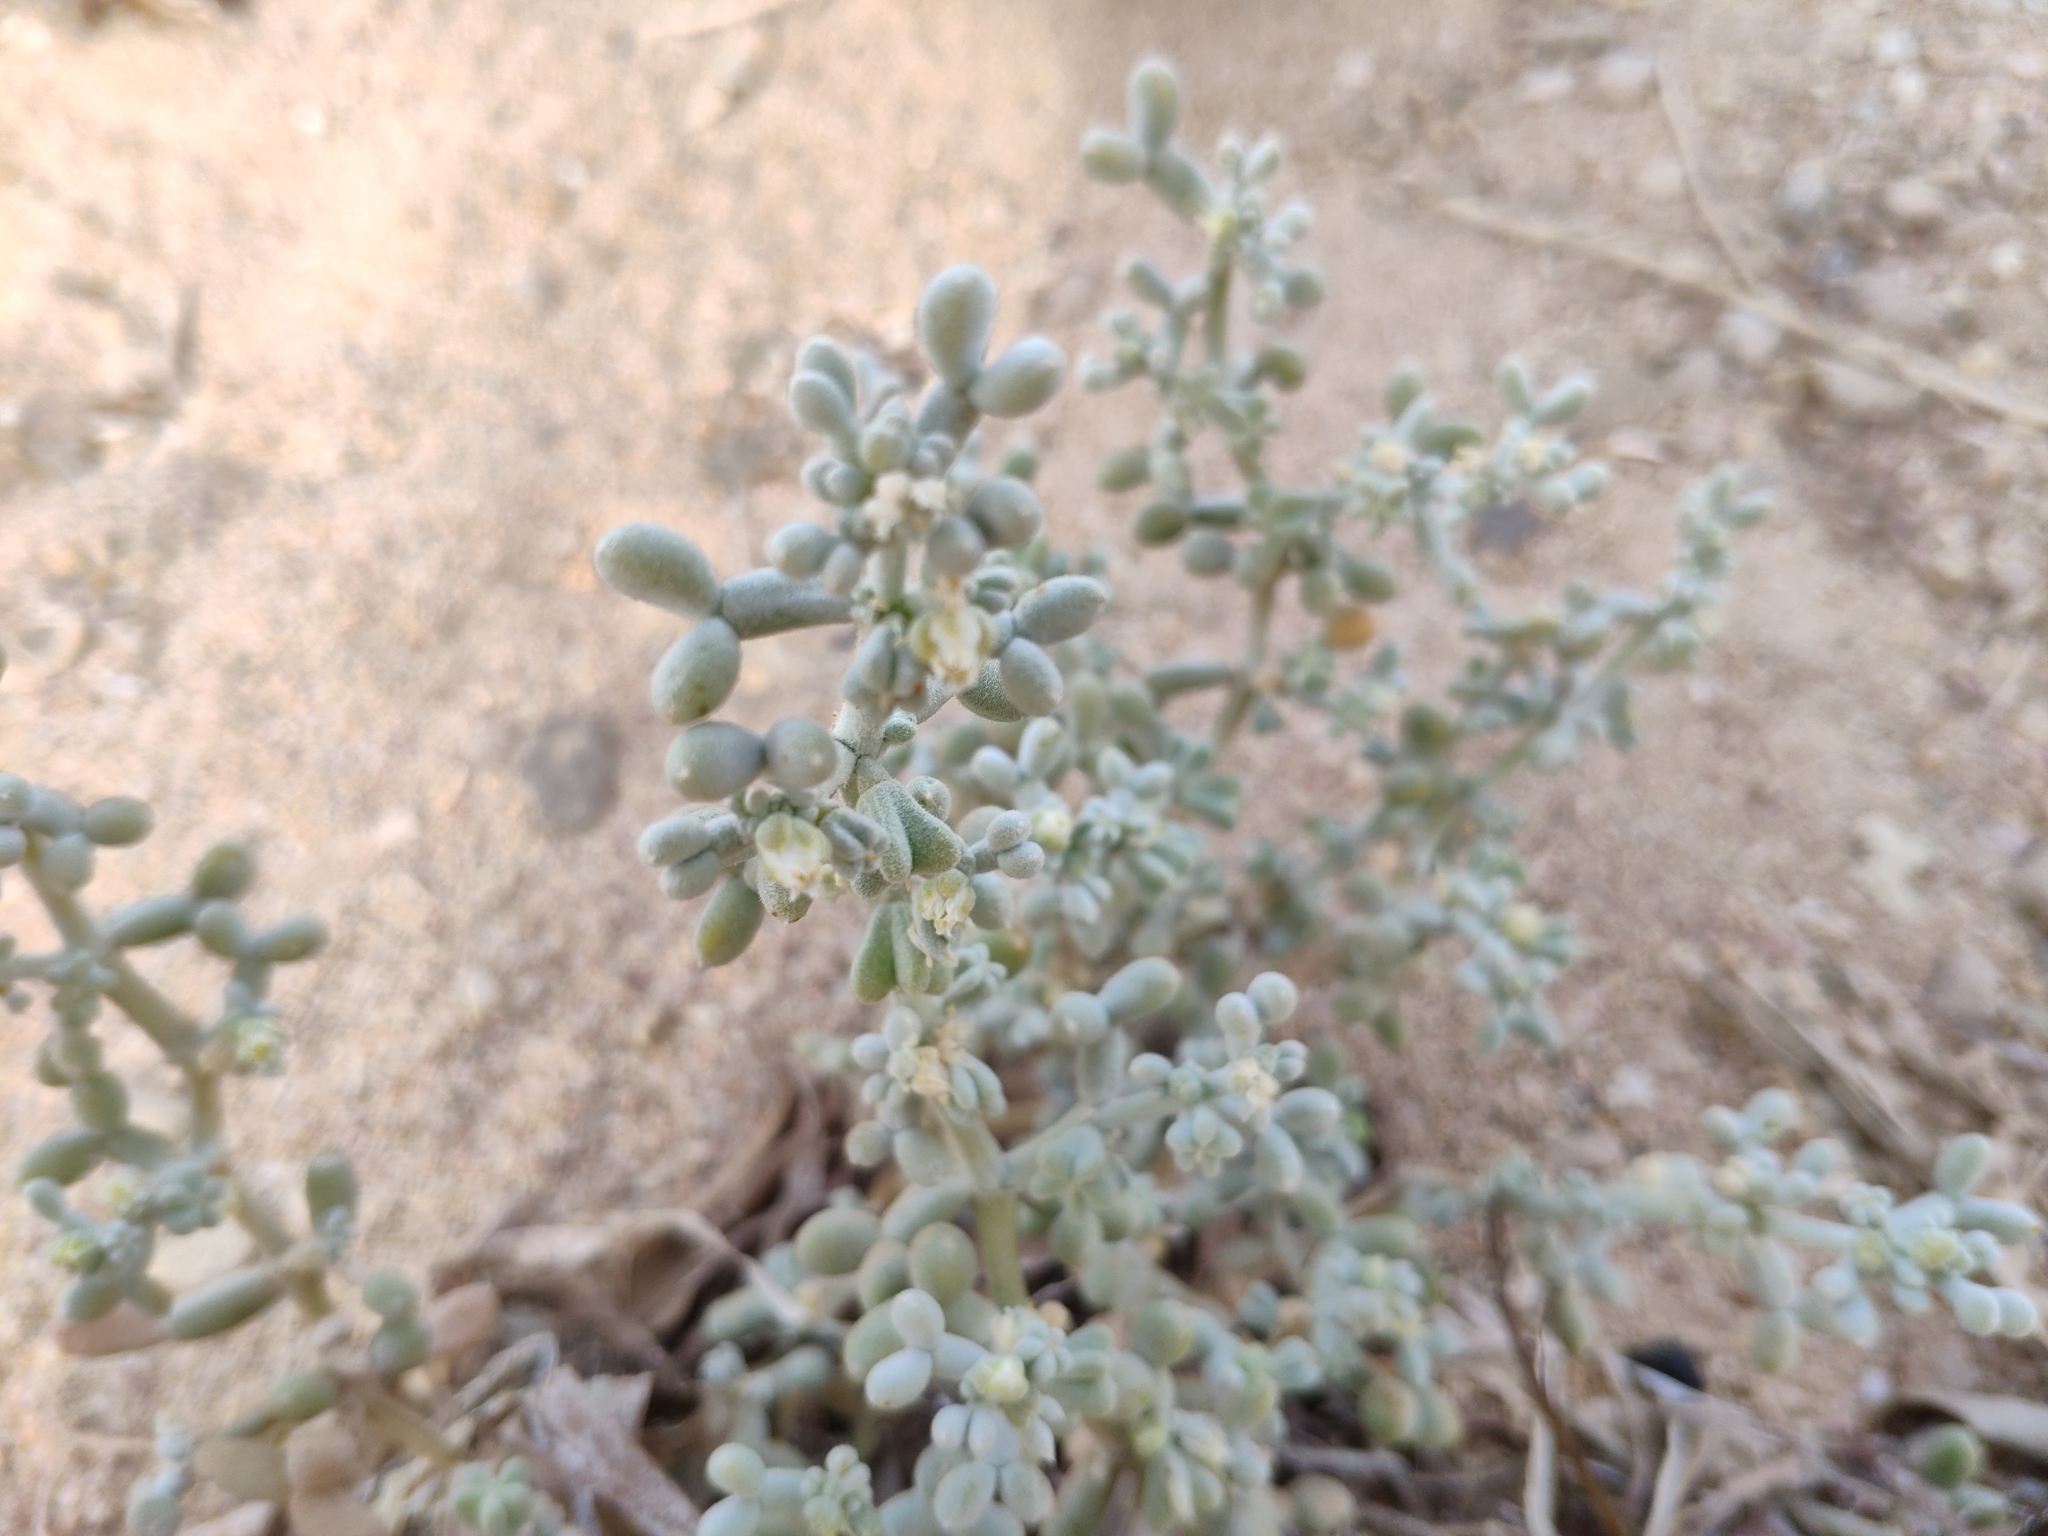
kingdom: Plantae
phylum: Tracheophyta
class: Magnoliopsida
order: Zygophyllales
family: Zygophyllaceae
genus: Tetraena
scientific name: Tetraena alba
